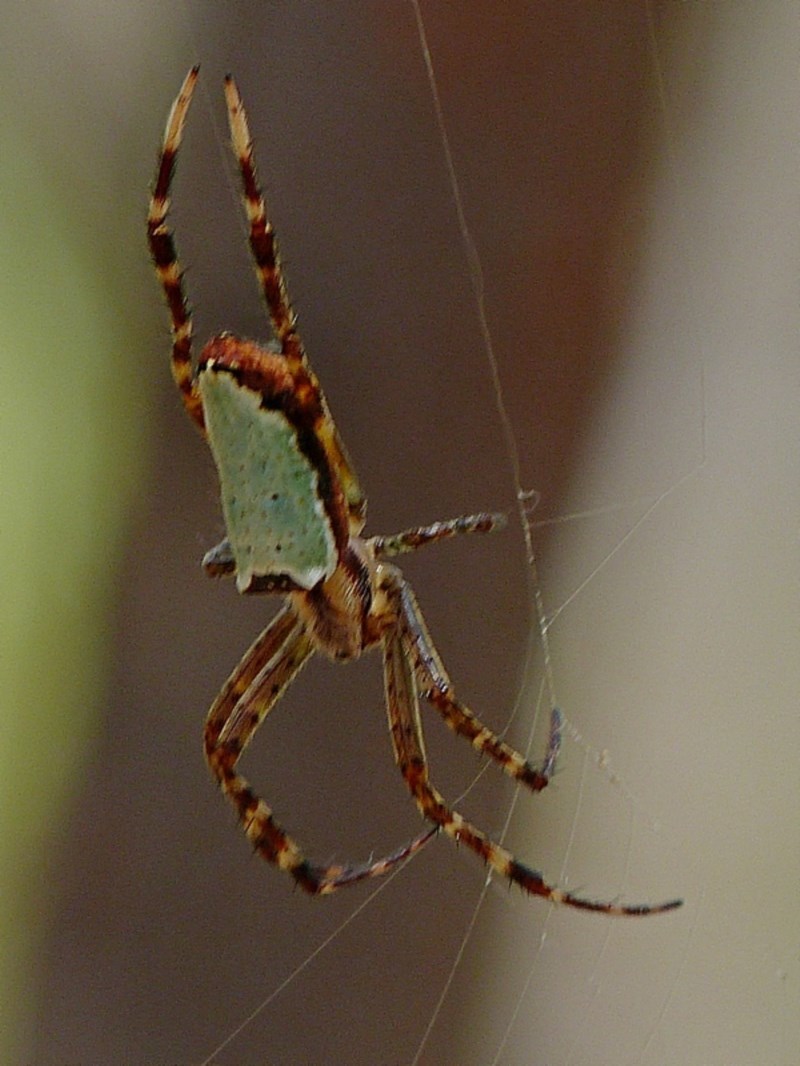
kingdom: Animalia
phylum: Arthropoda
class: Arachnida
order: Araneae
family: Araneidae
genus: Plebs
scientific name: Plebs bradleyi
